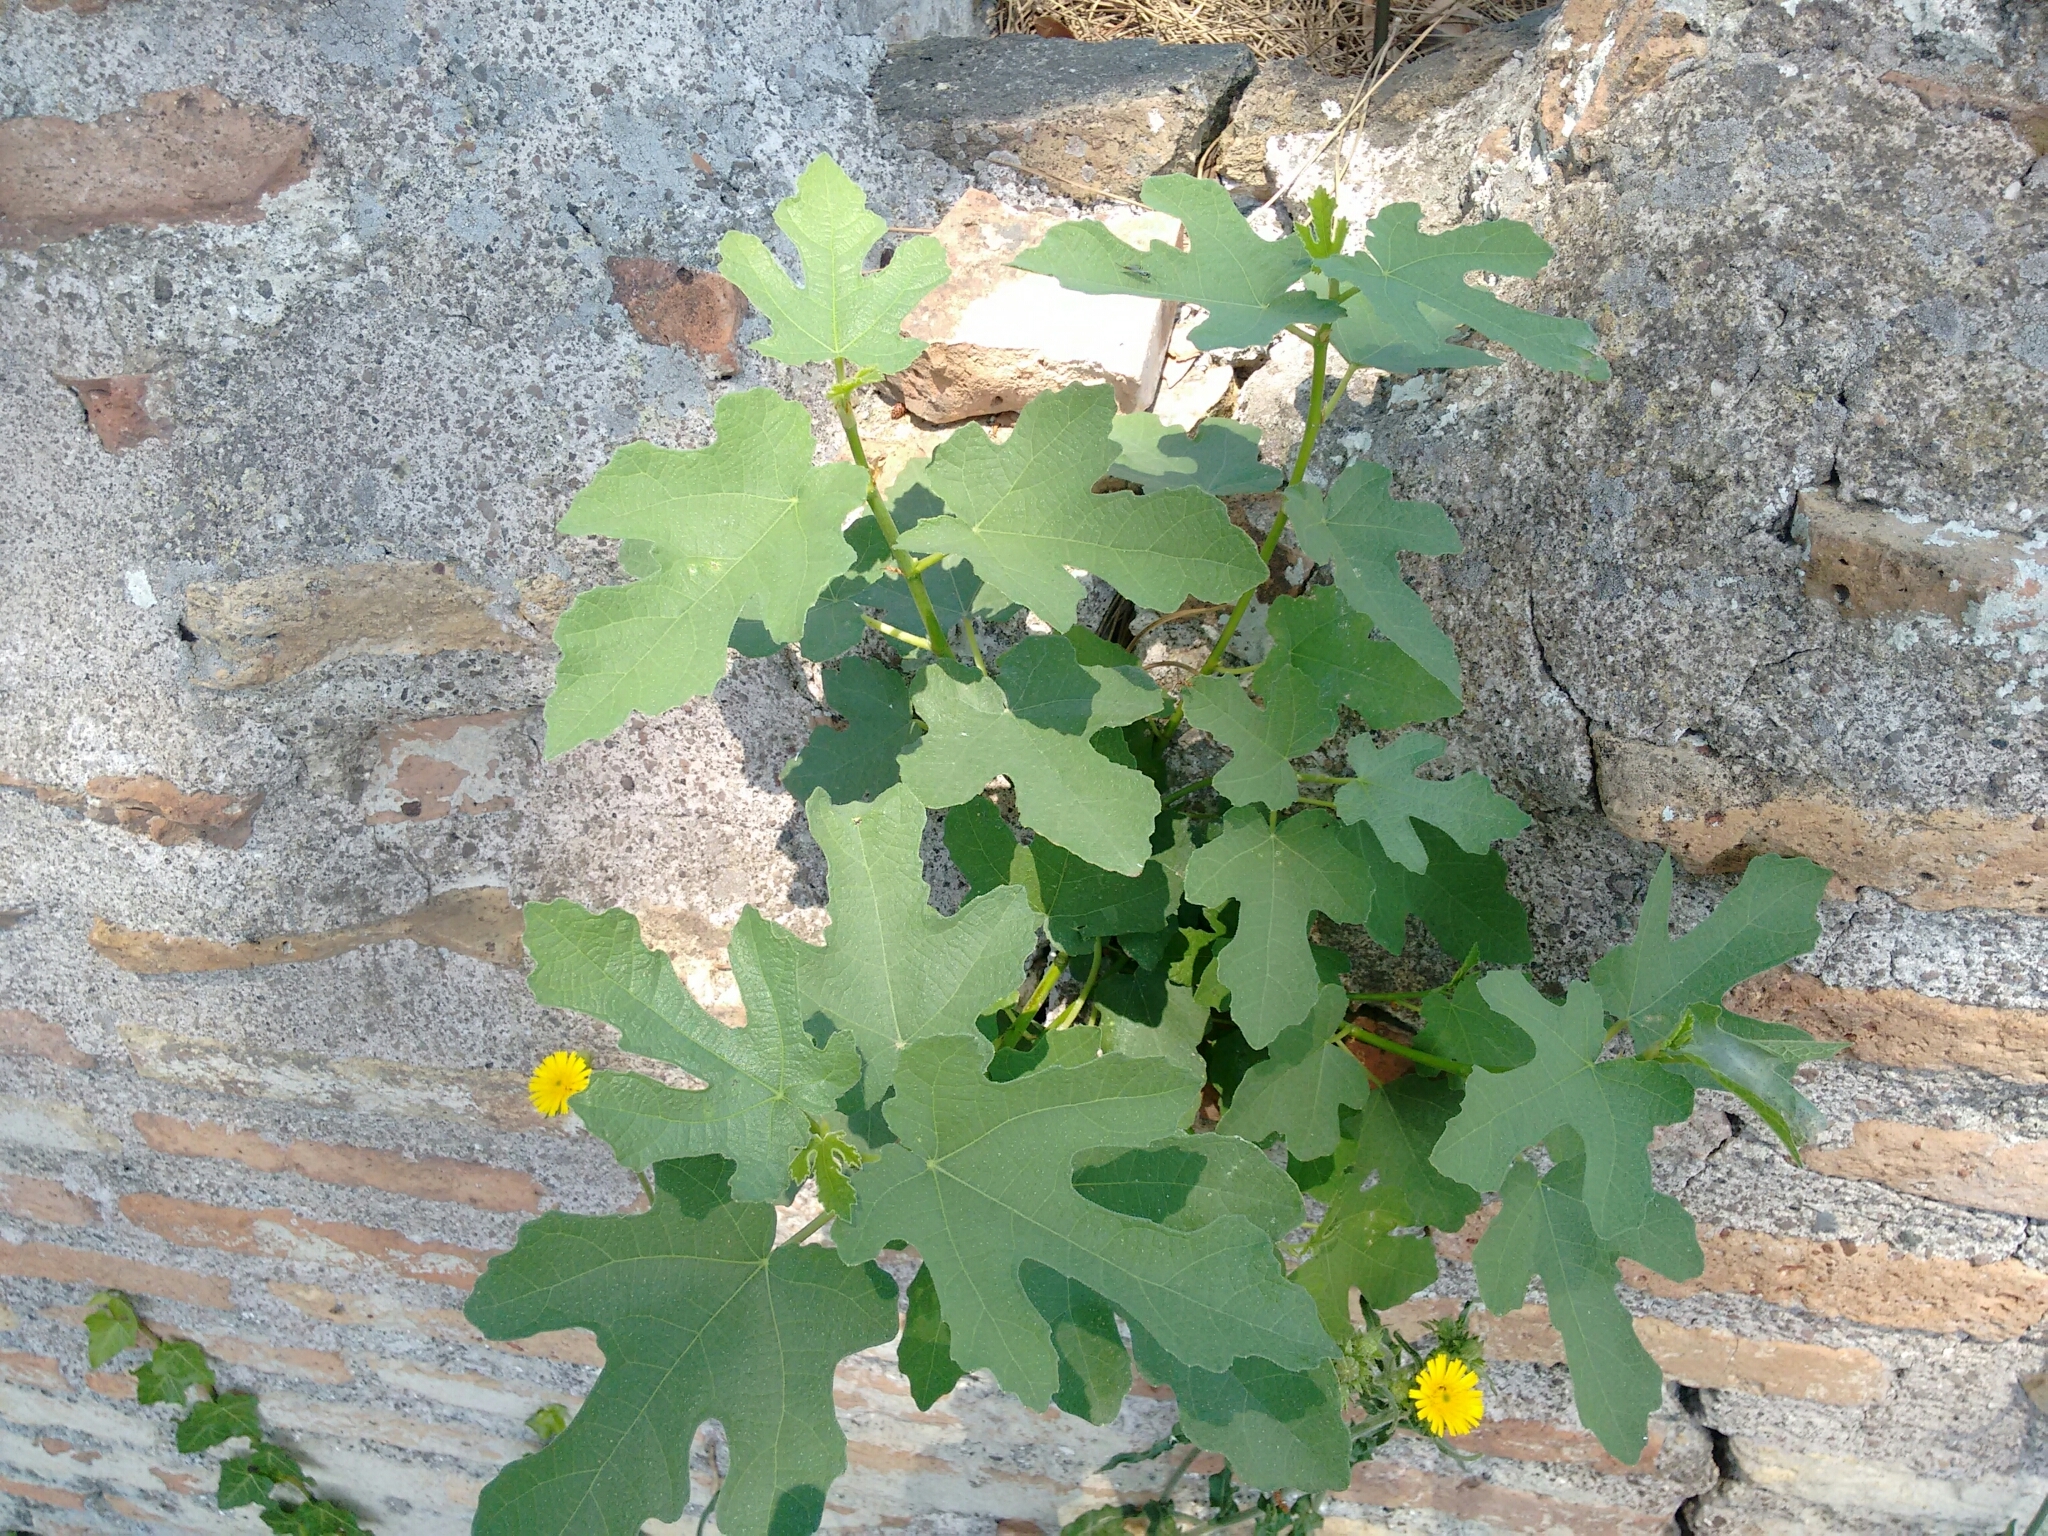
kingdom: Plantae
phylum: Tracheophyta
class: Magnoliopsida
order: Rosales
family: Moraceae
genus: Ficus
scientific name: Ficus carica
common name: Fig
